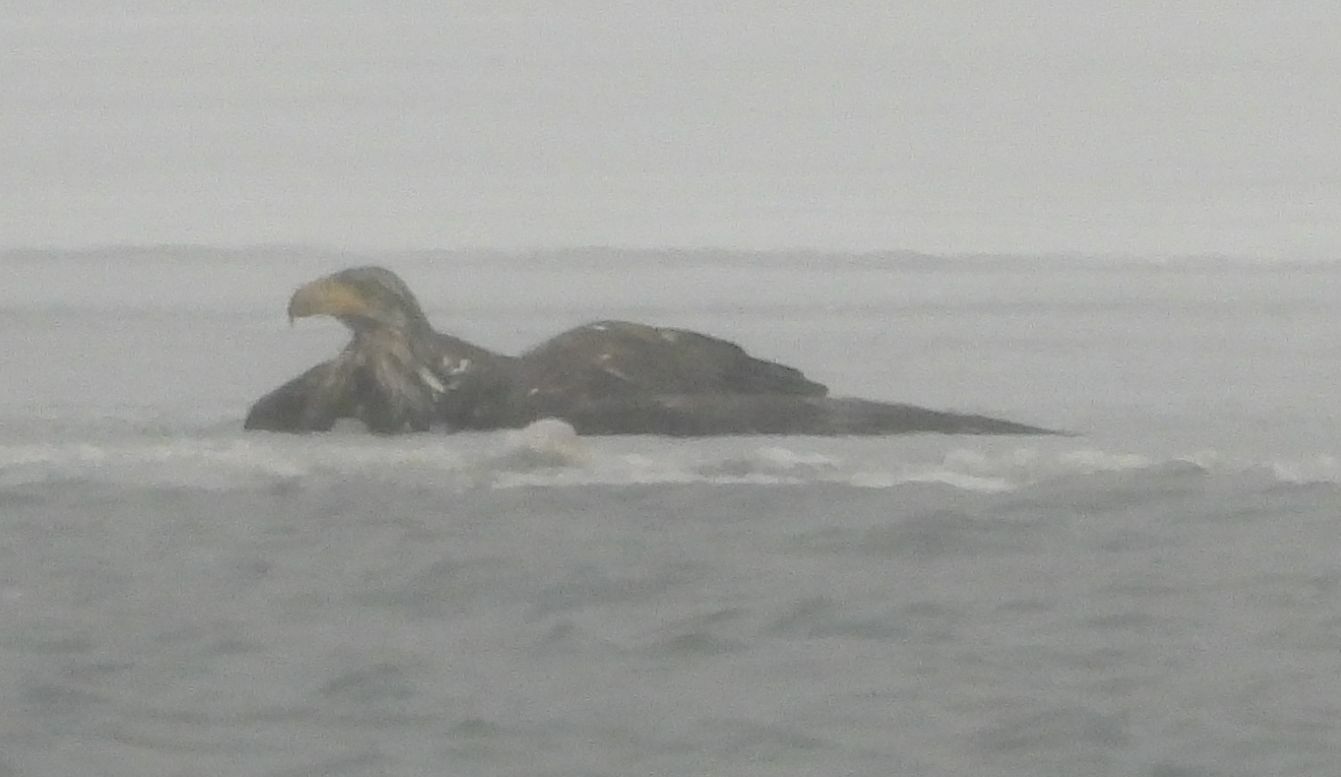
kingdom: Animalia
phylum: Chordata
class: Aves
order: Accipitriformes
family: Accipitridae
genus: Haliaeetus
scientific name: Haliaeetus leucocephalus
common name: Bald eagle
